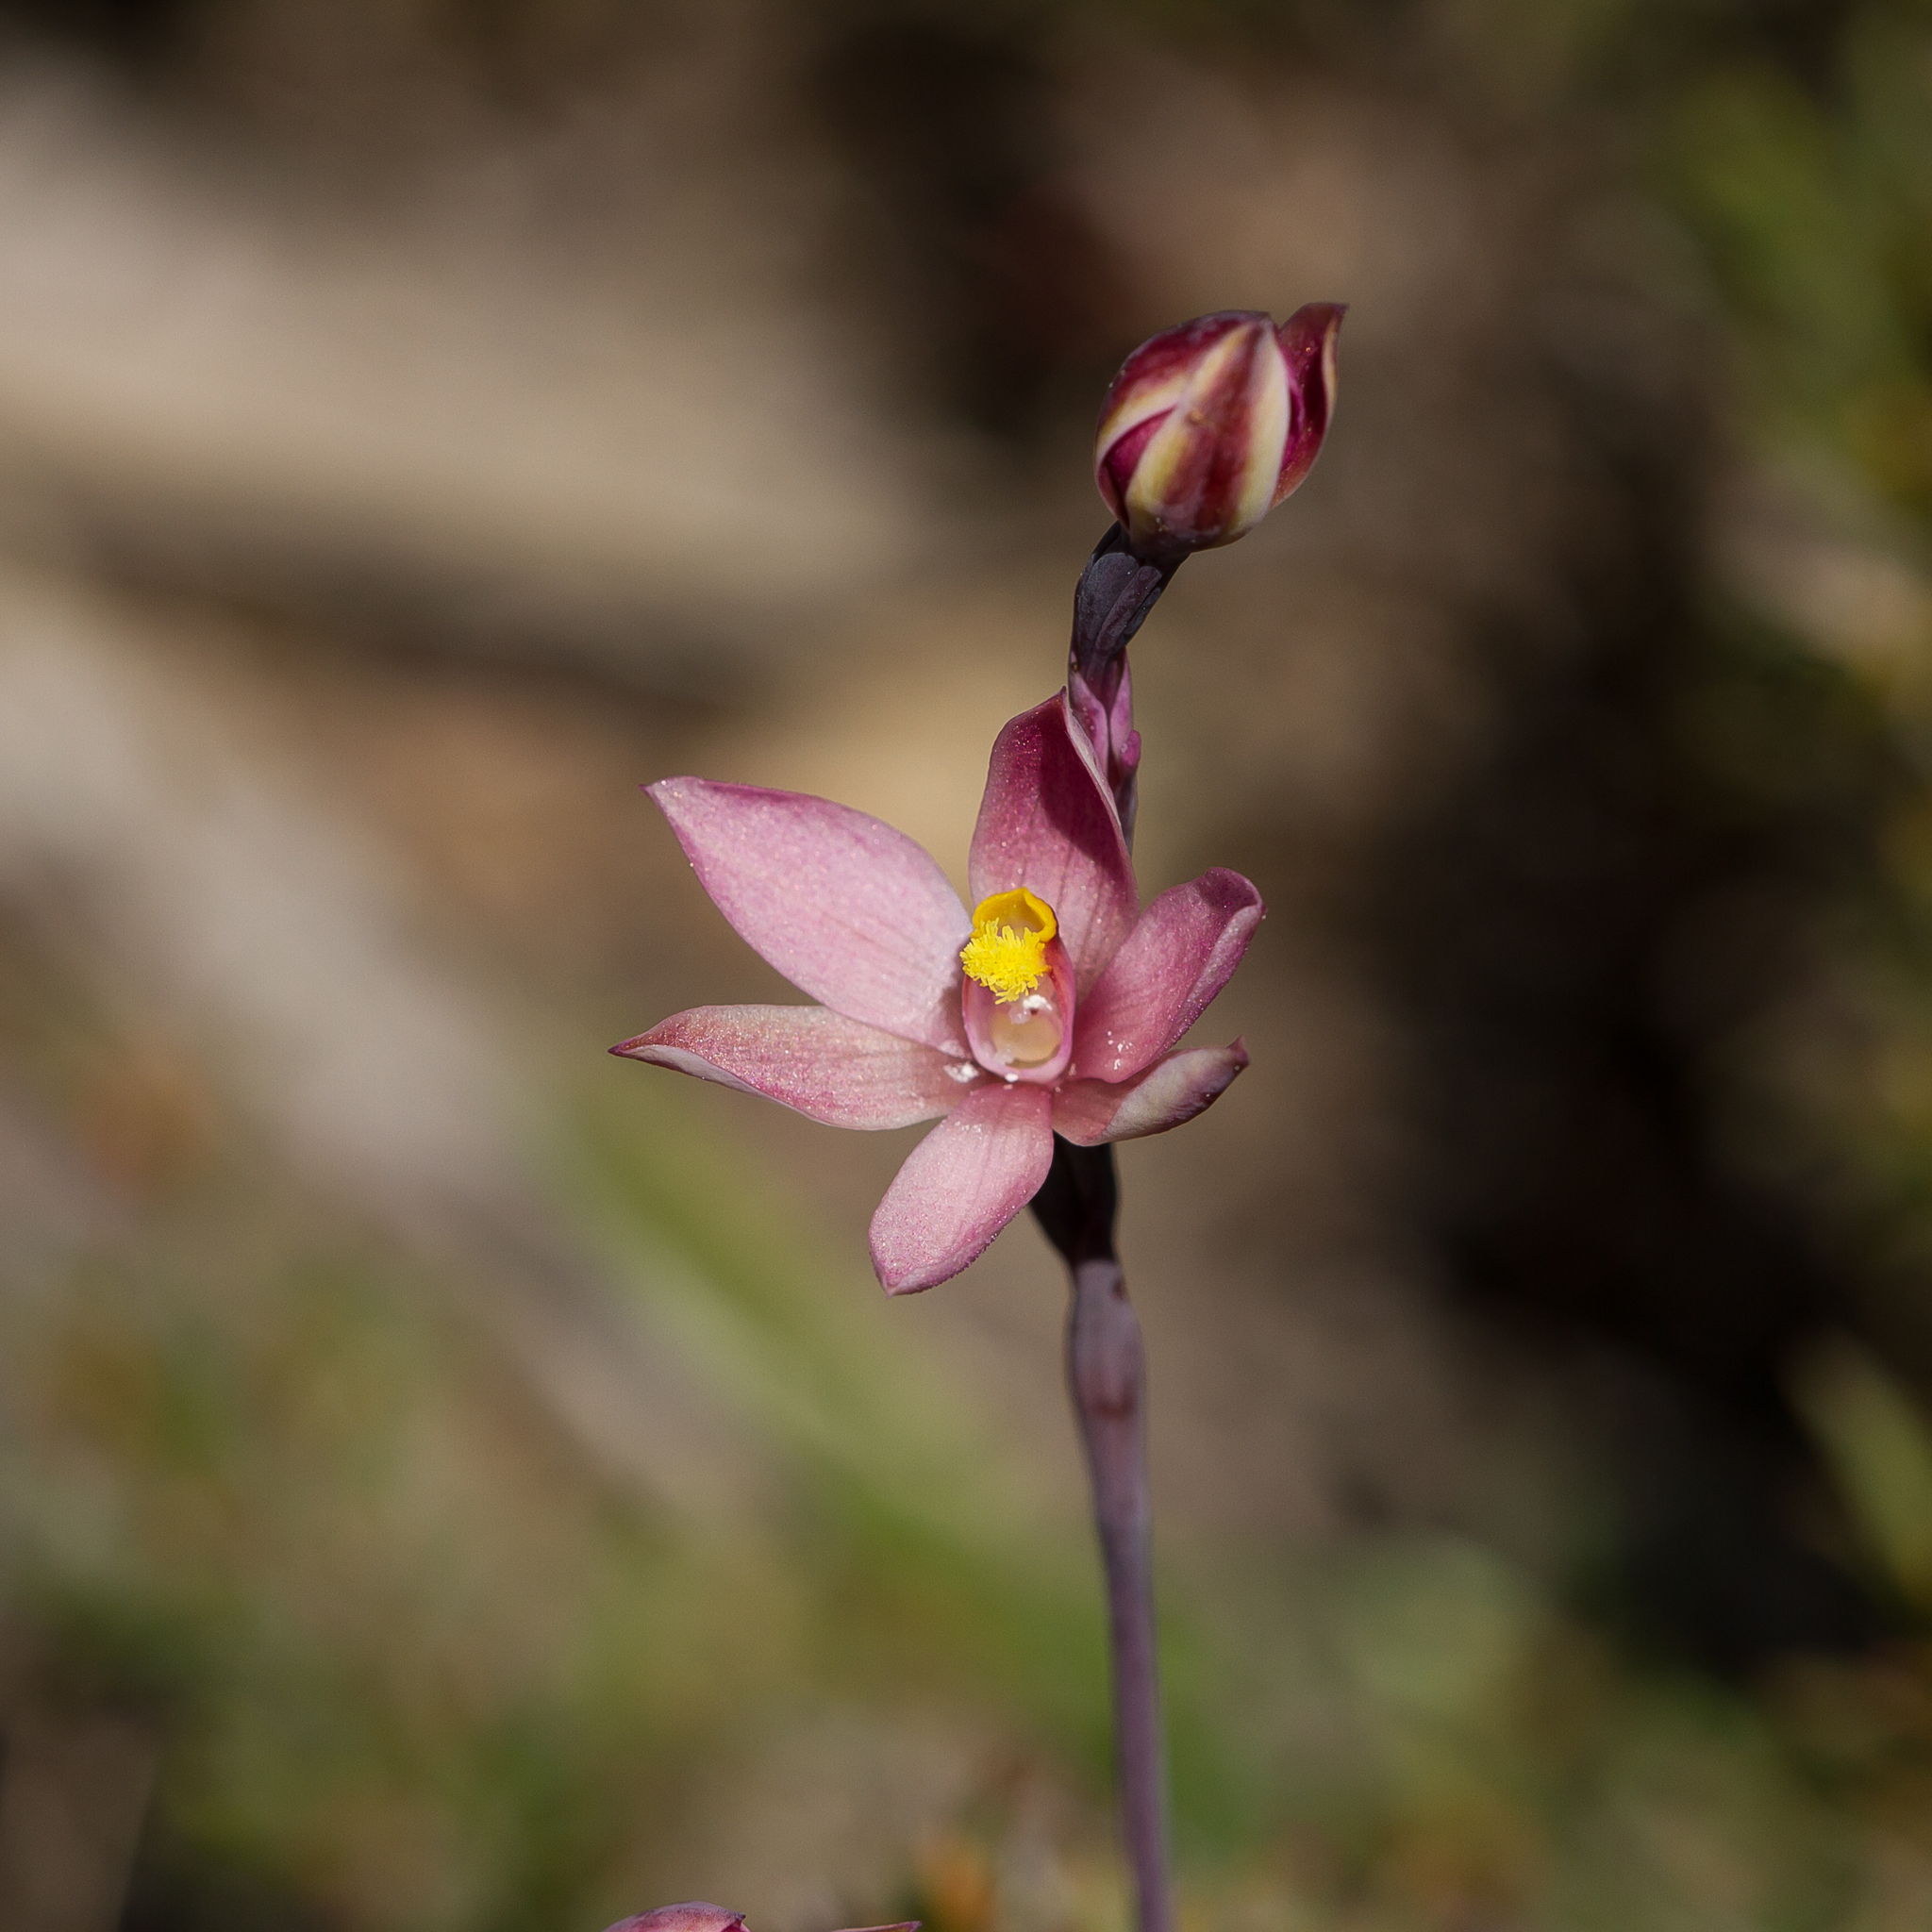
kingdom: Plantae
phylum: Tracheophyta
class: Liliopsida
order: Asparagales
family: Orchidaceae
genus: Thelymitra
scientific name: Thelymitra luteocilium
